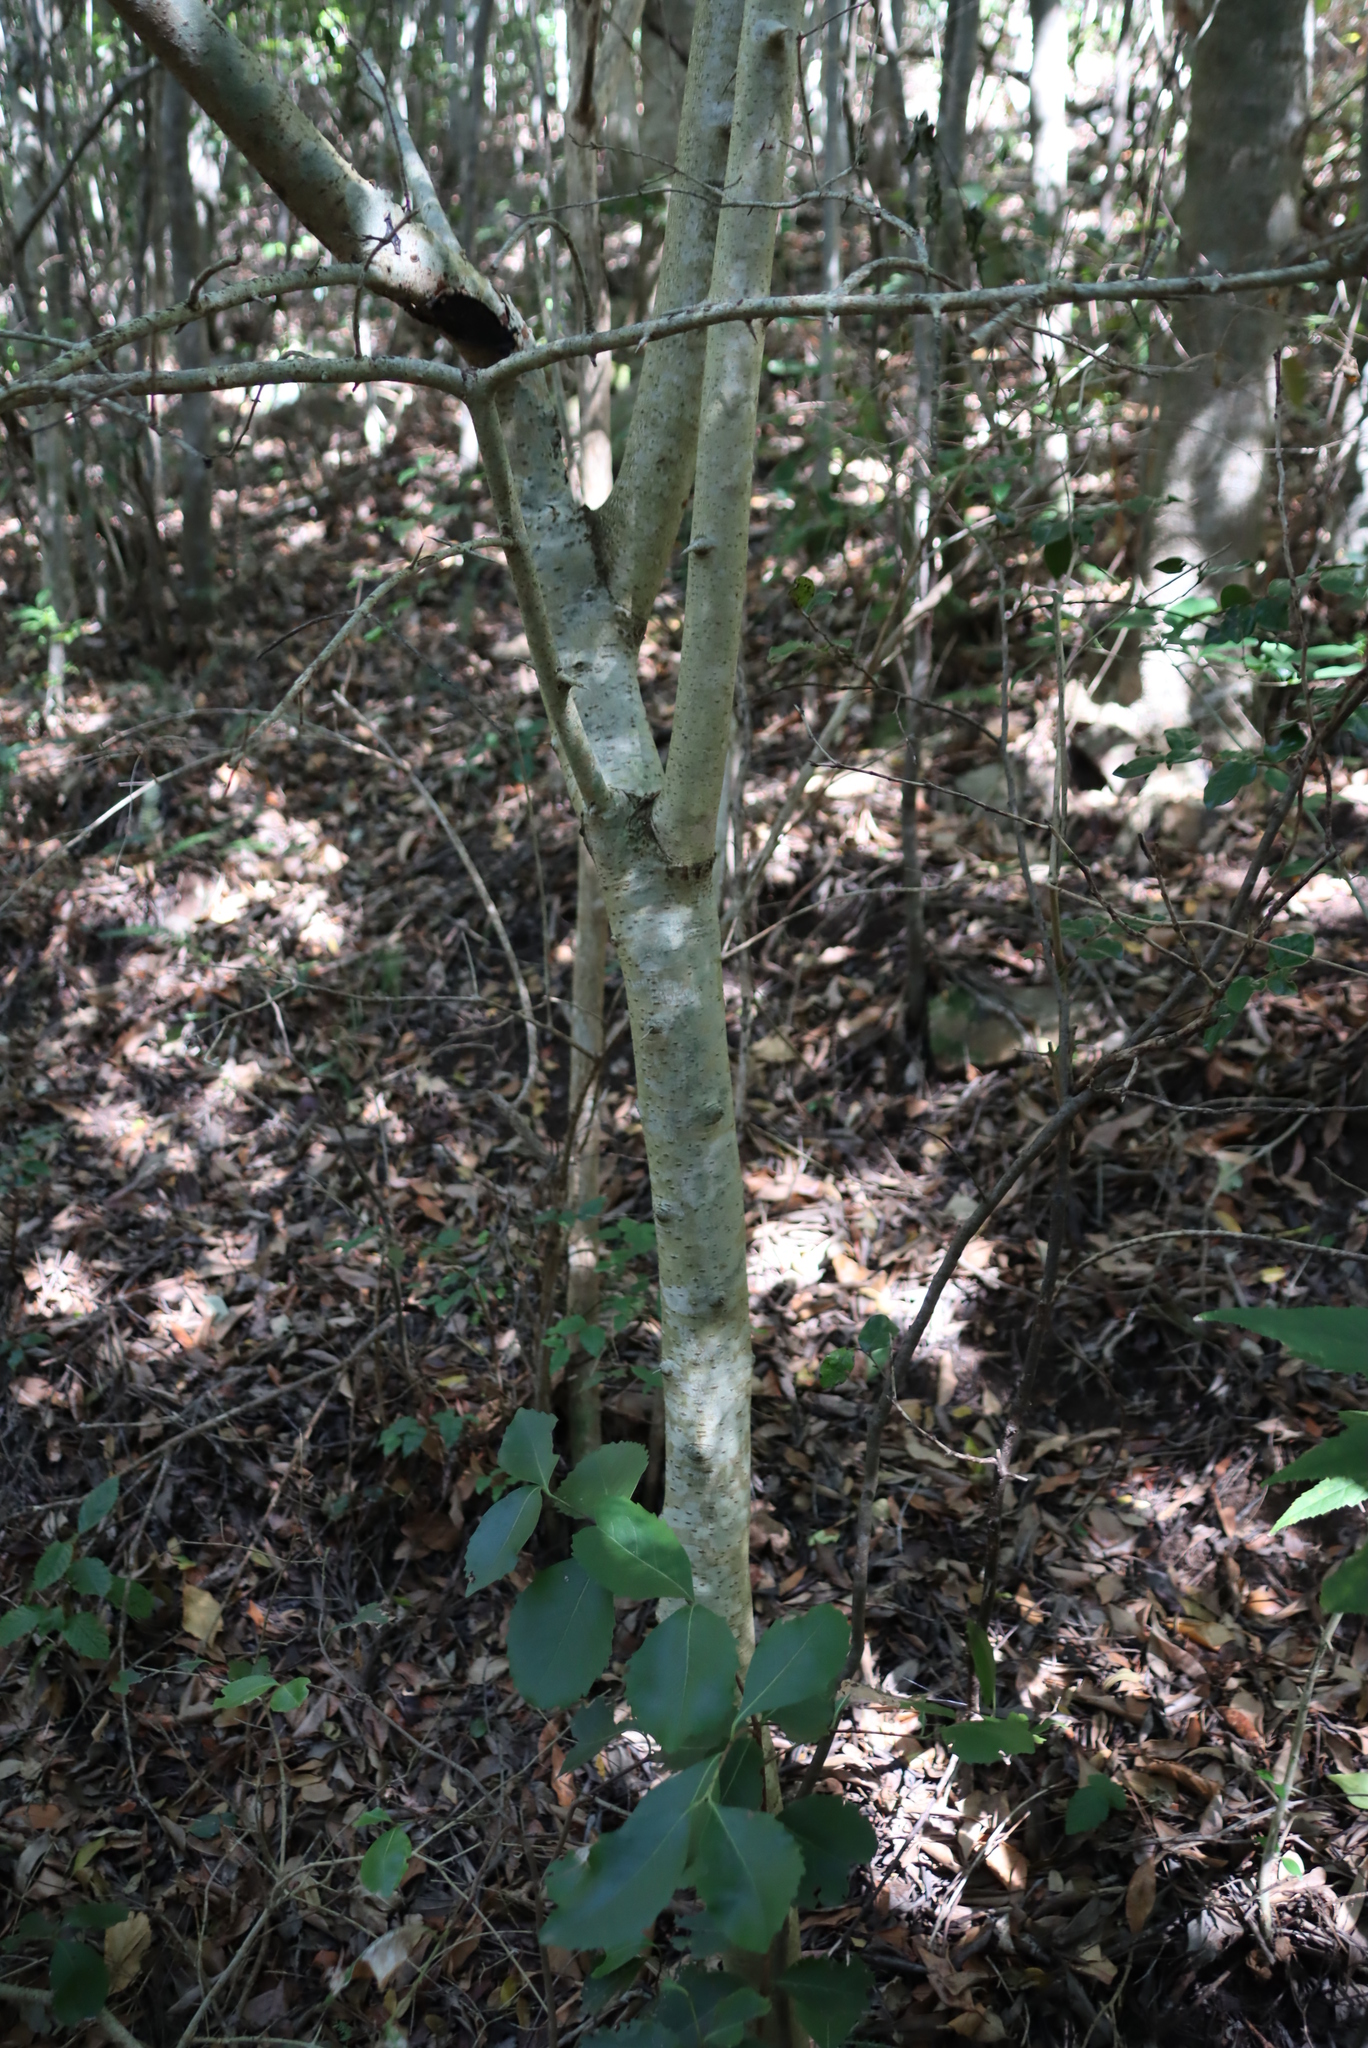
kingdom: Plantae
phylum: Tracheophyta
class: Magnoliopsida
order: Gentianales
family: Rubiaceae
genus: Canthium
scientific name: Canthium inerme
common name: Unarmed turkey-berry
